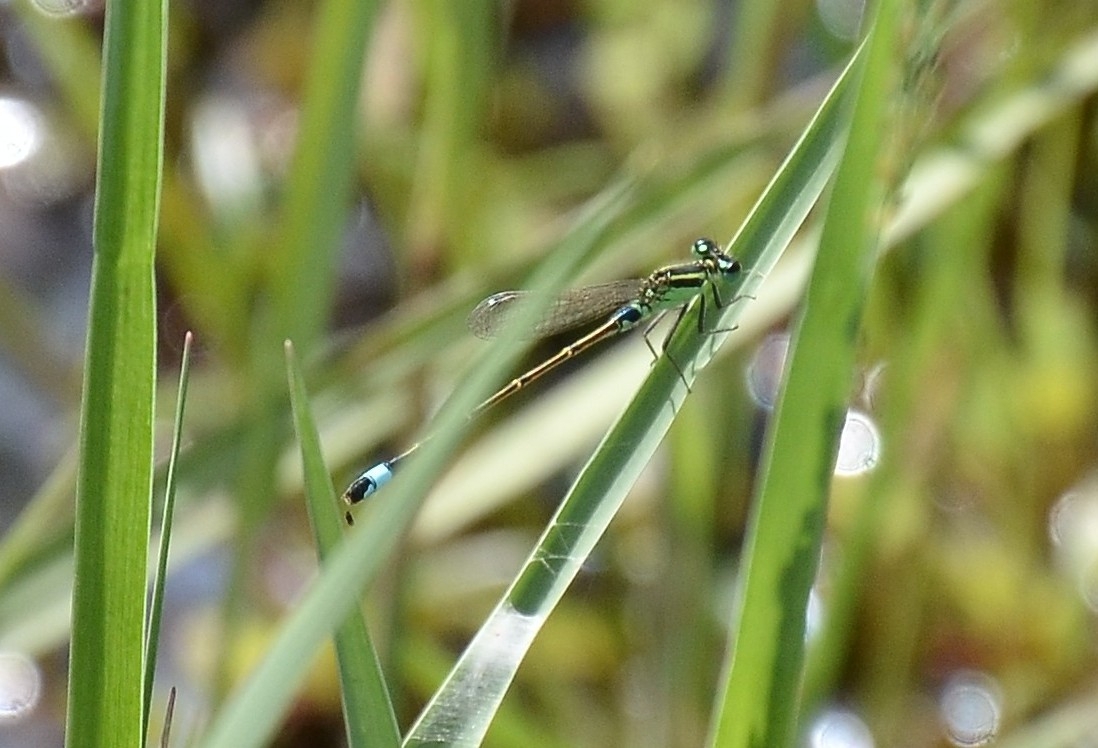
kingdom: Animalia
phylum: Arthropoda
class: Insecta
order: Odonata
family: Coenagrionidae
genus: Ischnura
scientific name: Ischnura senegalensis
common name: Tropical bluetail
